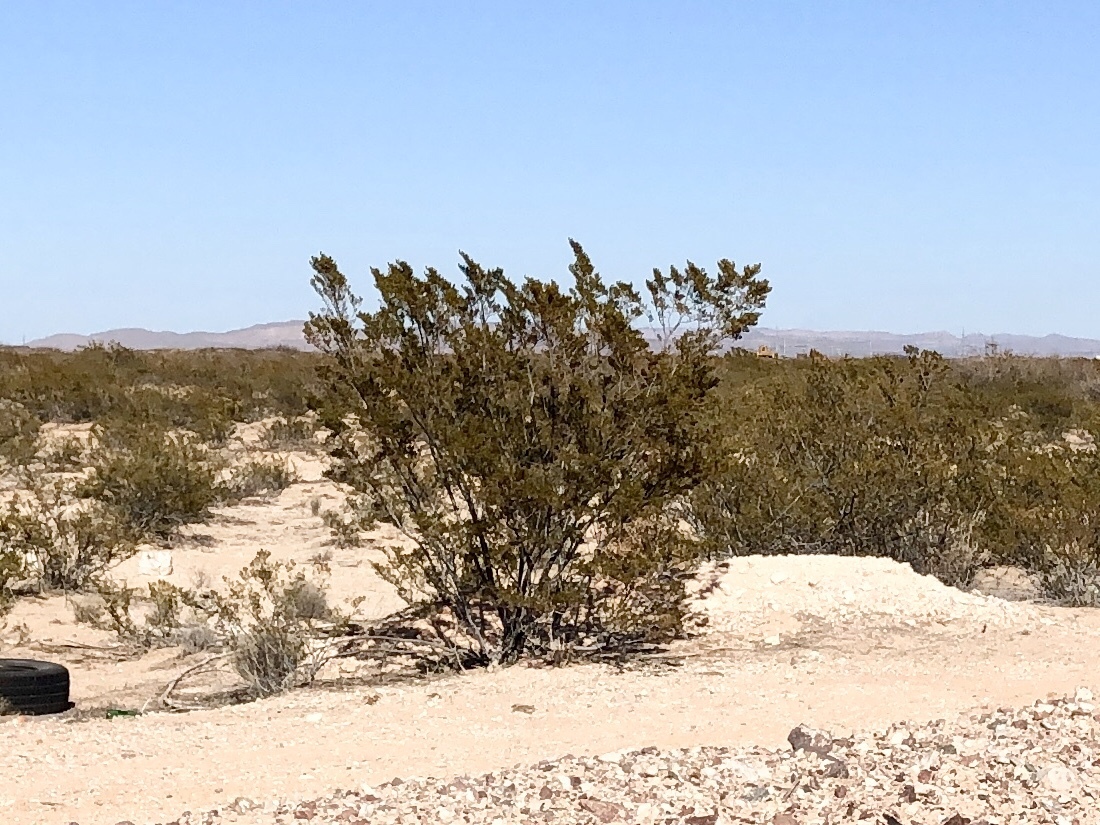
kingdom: Plantae
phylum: Tracheophyta
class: Magnoliopsida
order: Zygophyllales
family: Zygophyllaceae
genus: Larrea
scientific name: Larrea tridentata
